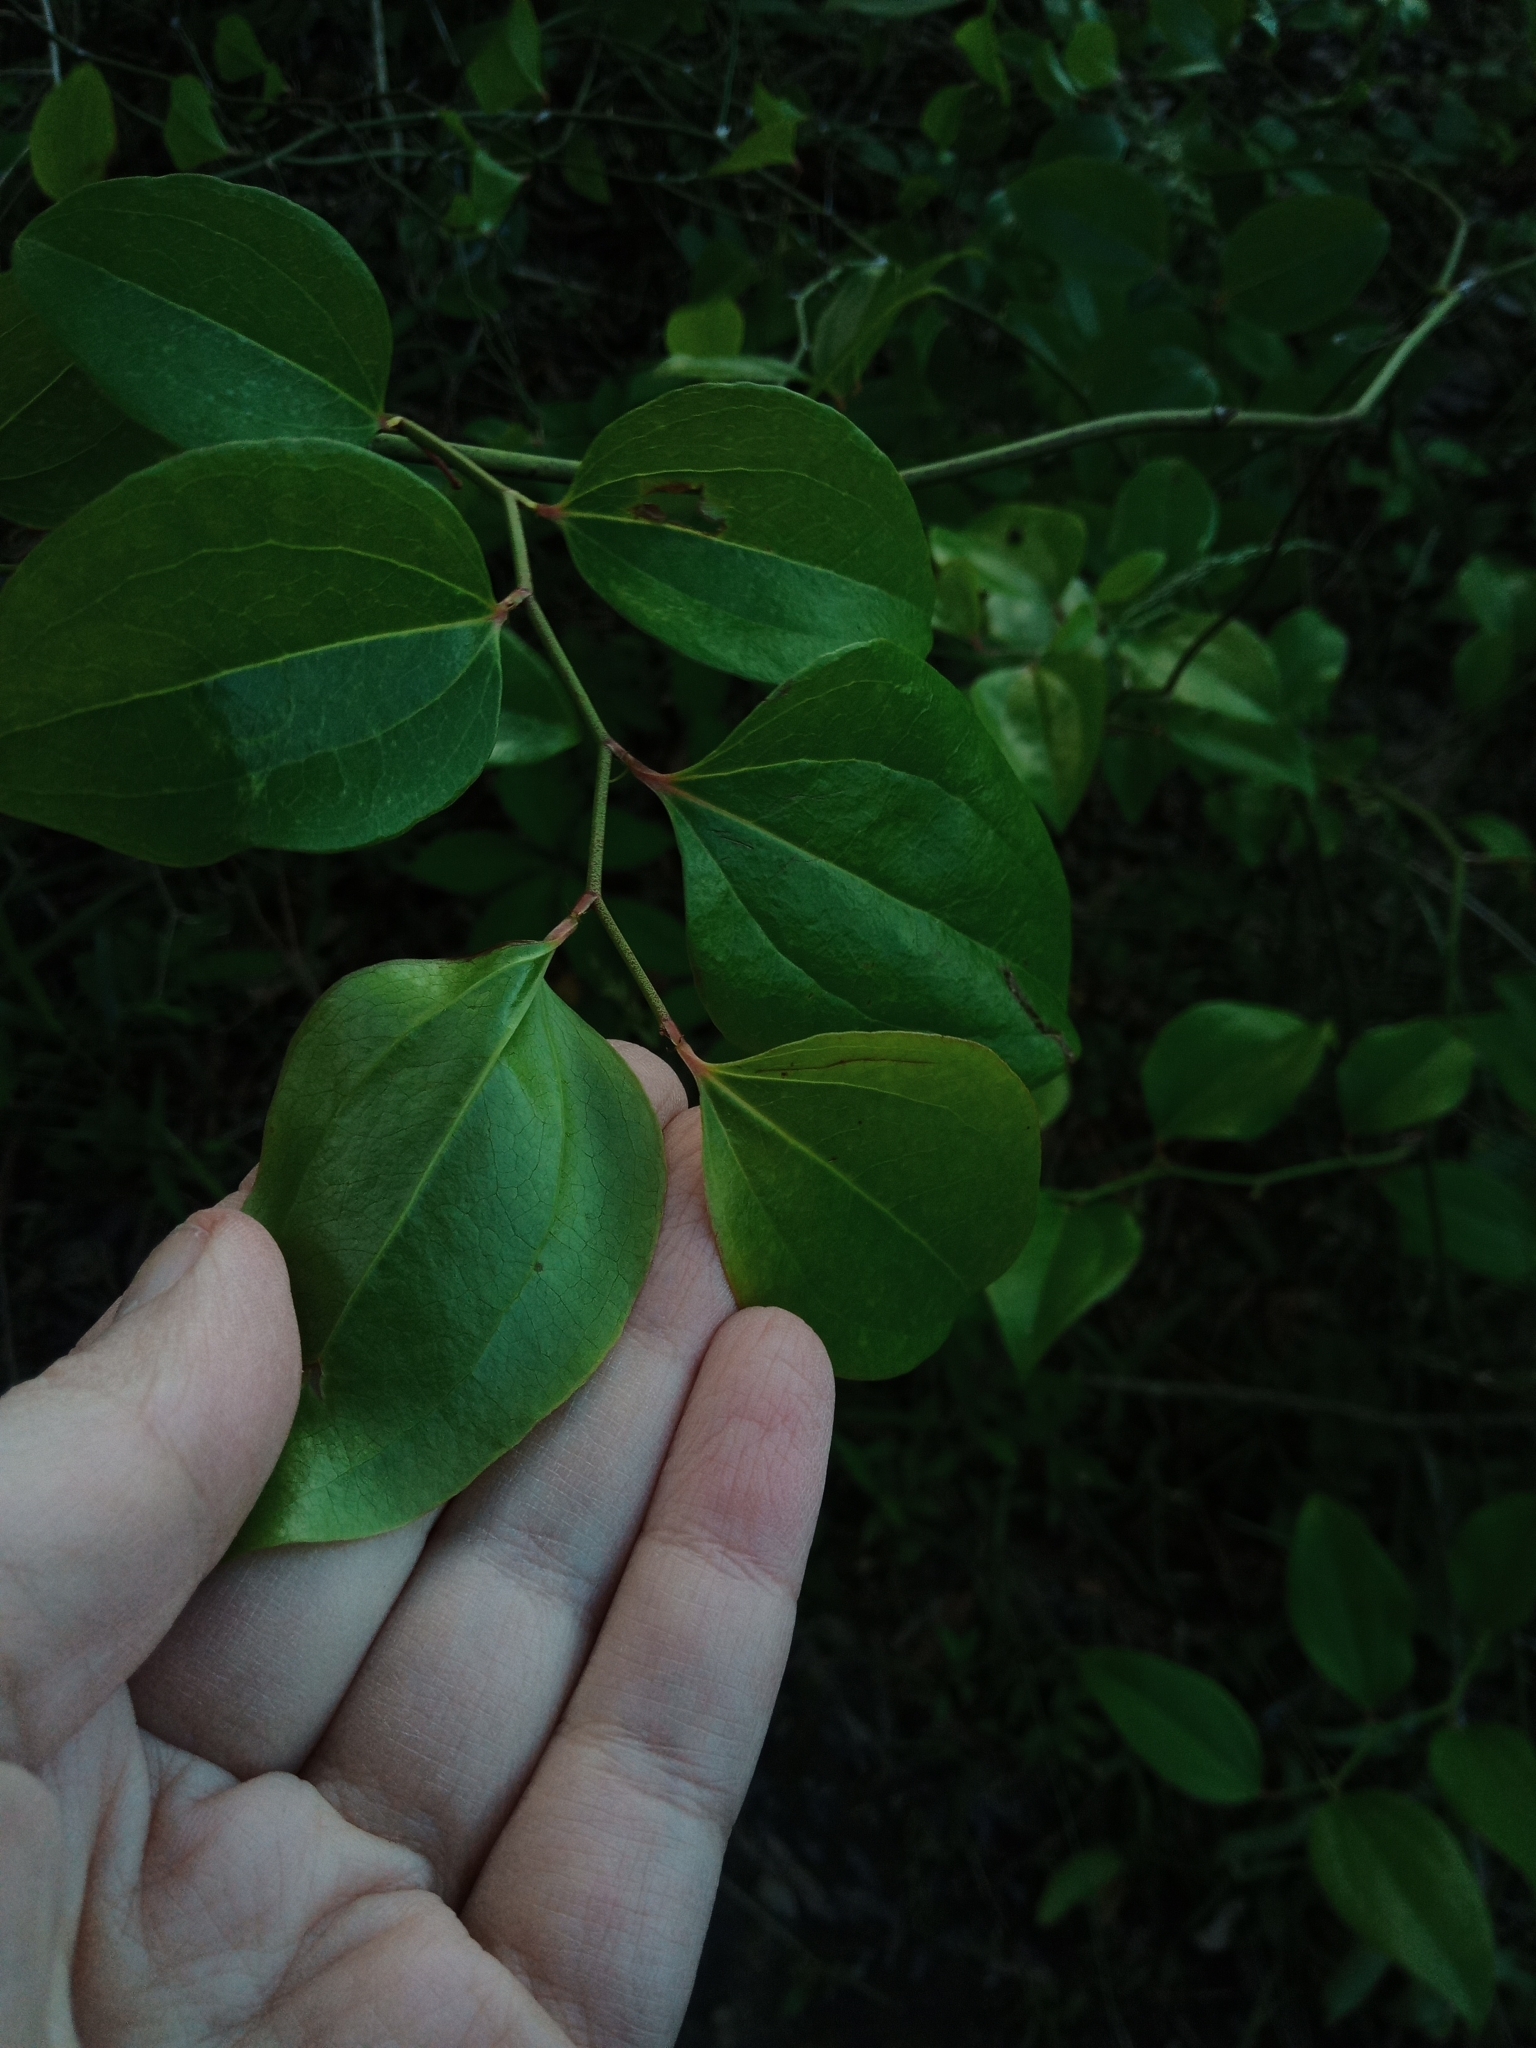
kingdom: Plantae
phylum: Tracheophyta
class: Liliopsida
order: Liliales
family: Smilacaceae
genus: Smilax
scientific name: Smilax rotundifolia
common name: Bullbriar
